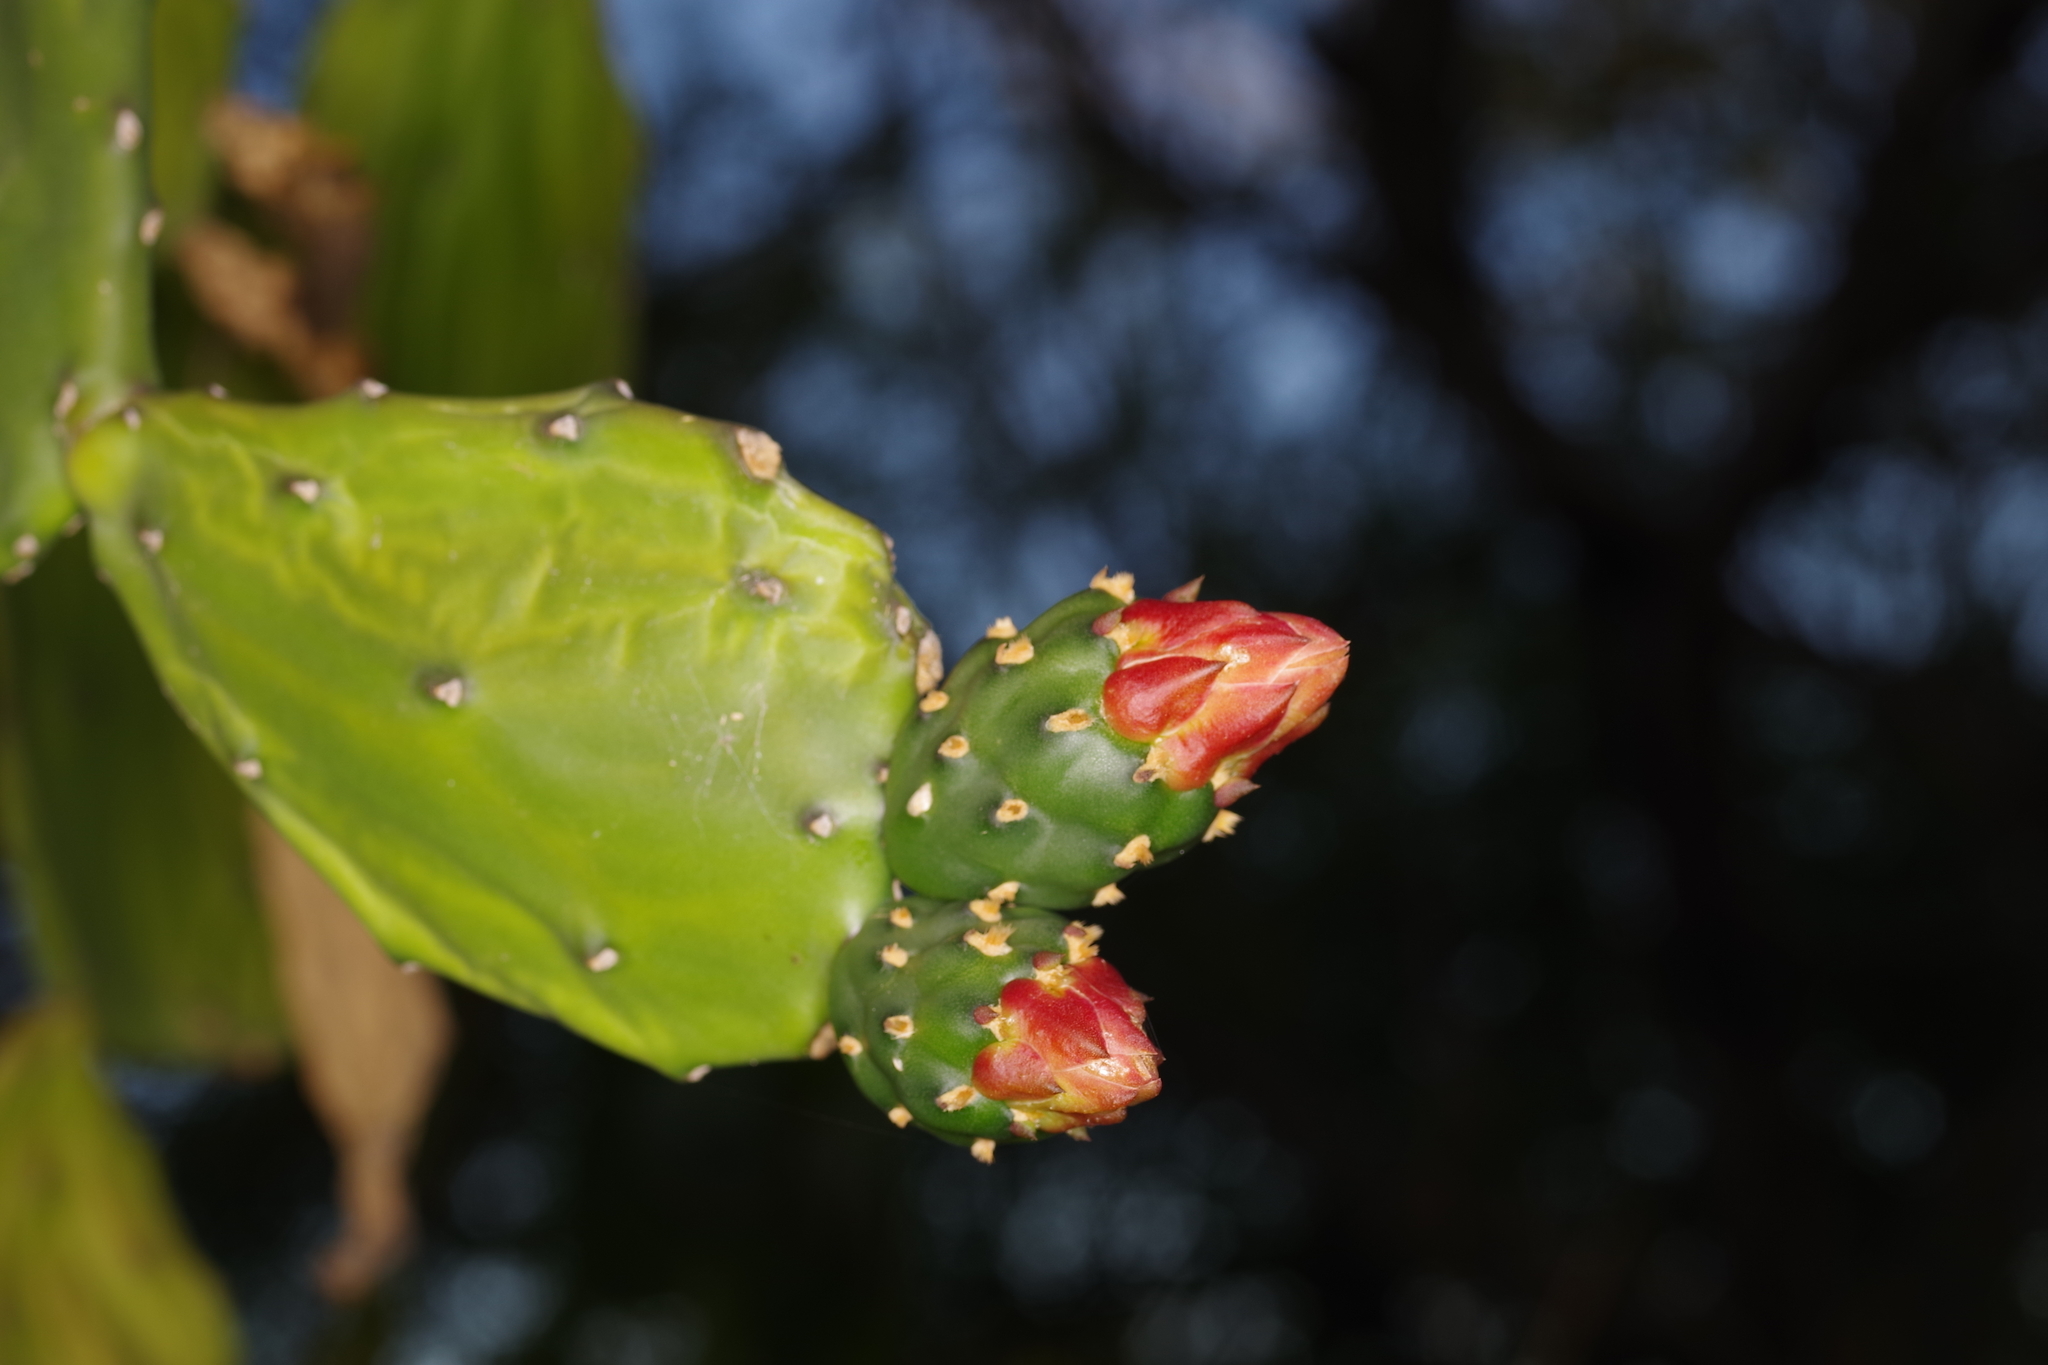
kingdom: Plantae
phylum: Tracheophyta
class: Magnoliopsida
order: Caryophyllales
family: Cactaceae
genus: Opuntia
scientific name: Opuntia cochenillifera
